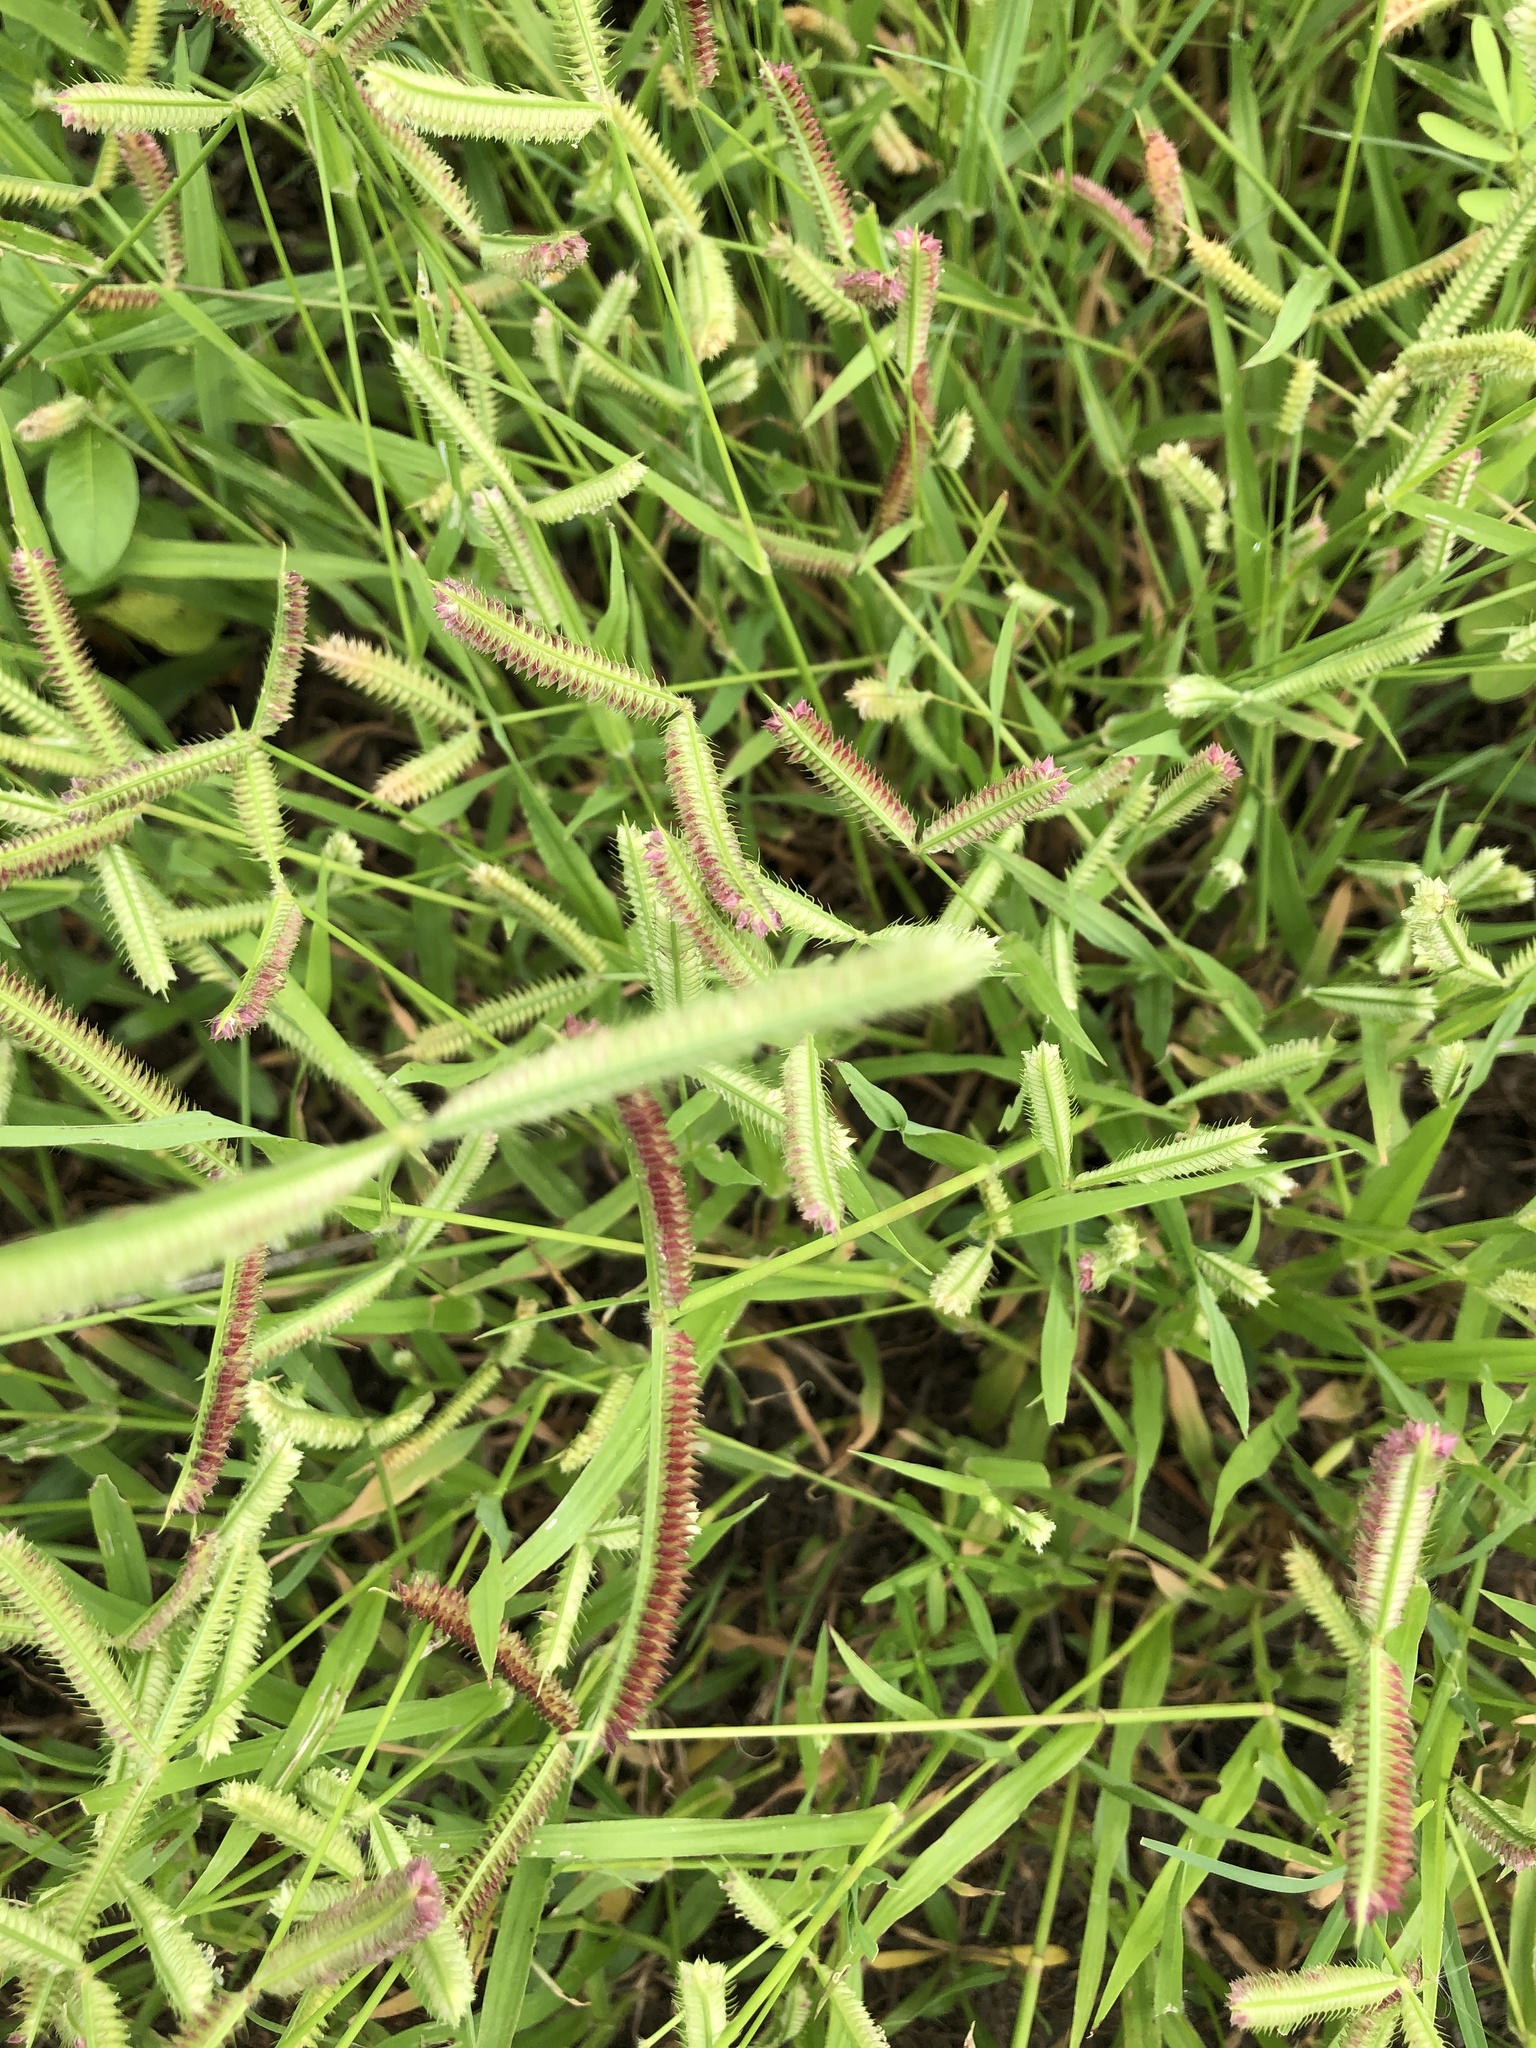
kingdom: Plantae
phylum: Tracheophyta
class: Liliopsida
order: Poales
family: Poaceae
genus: Dactyloctenium
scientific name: Dactyloctenium aegyptium
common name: Egyptian grass
